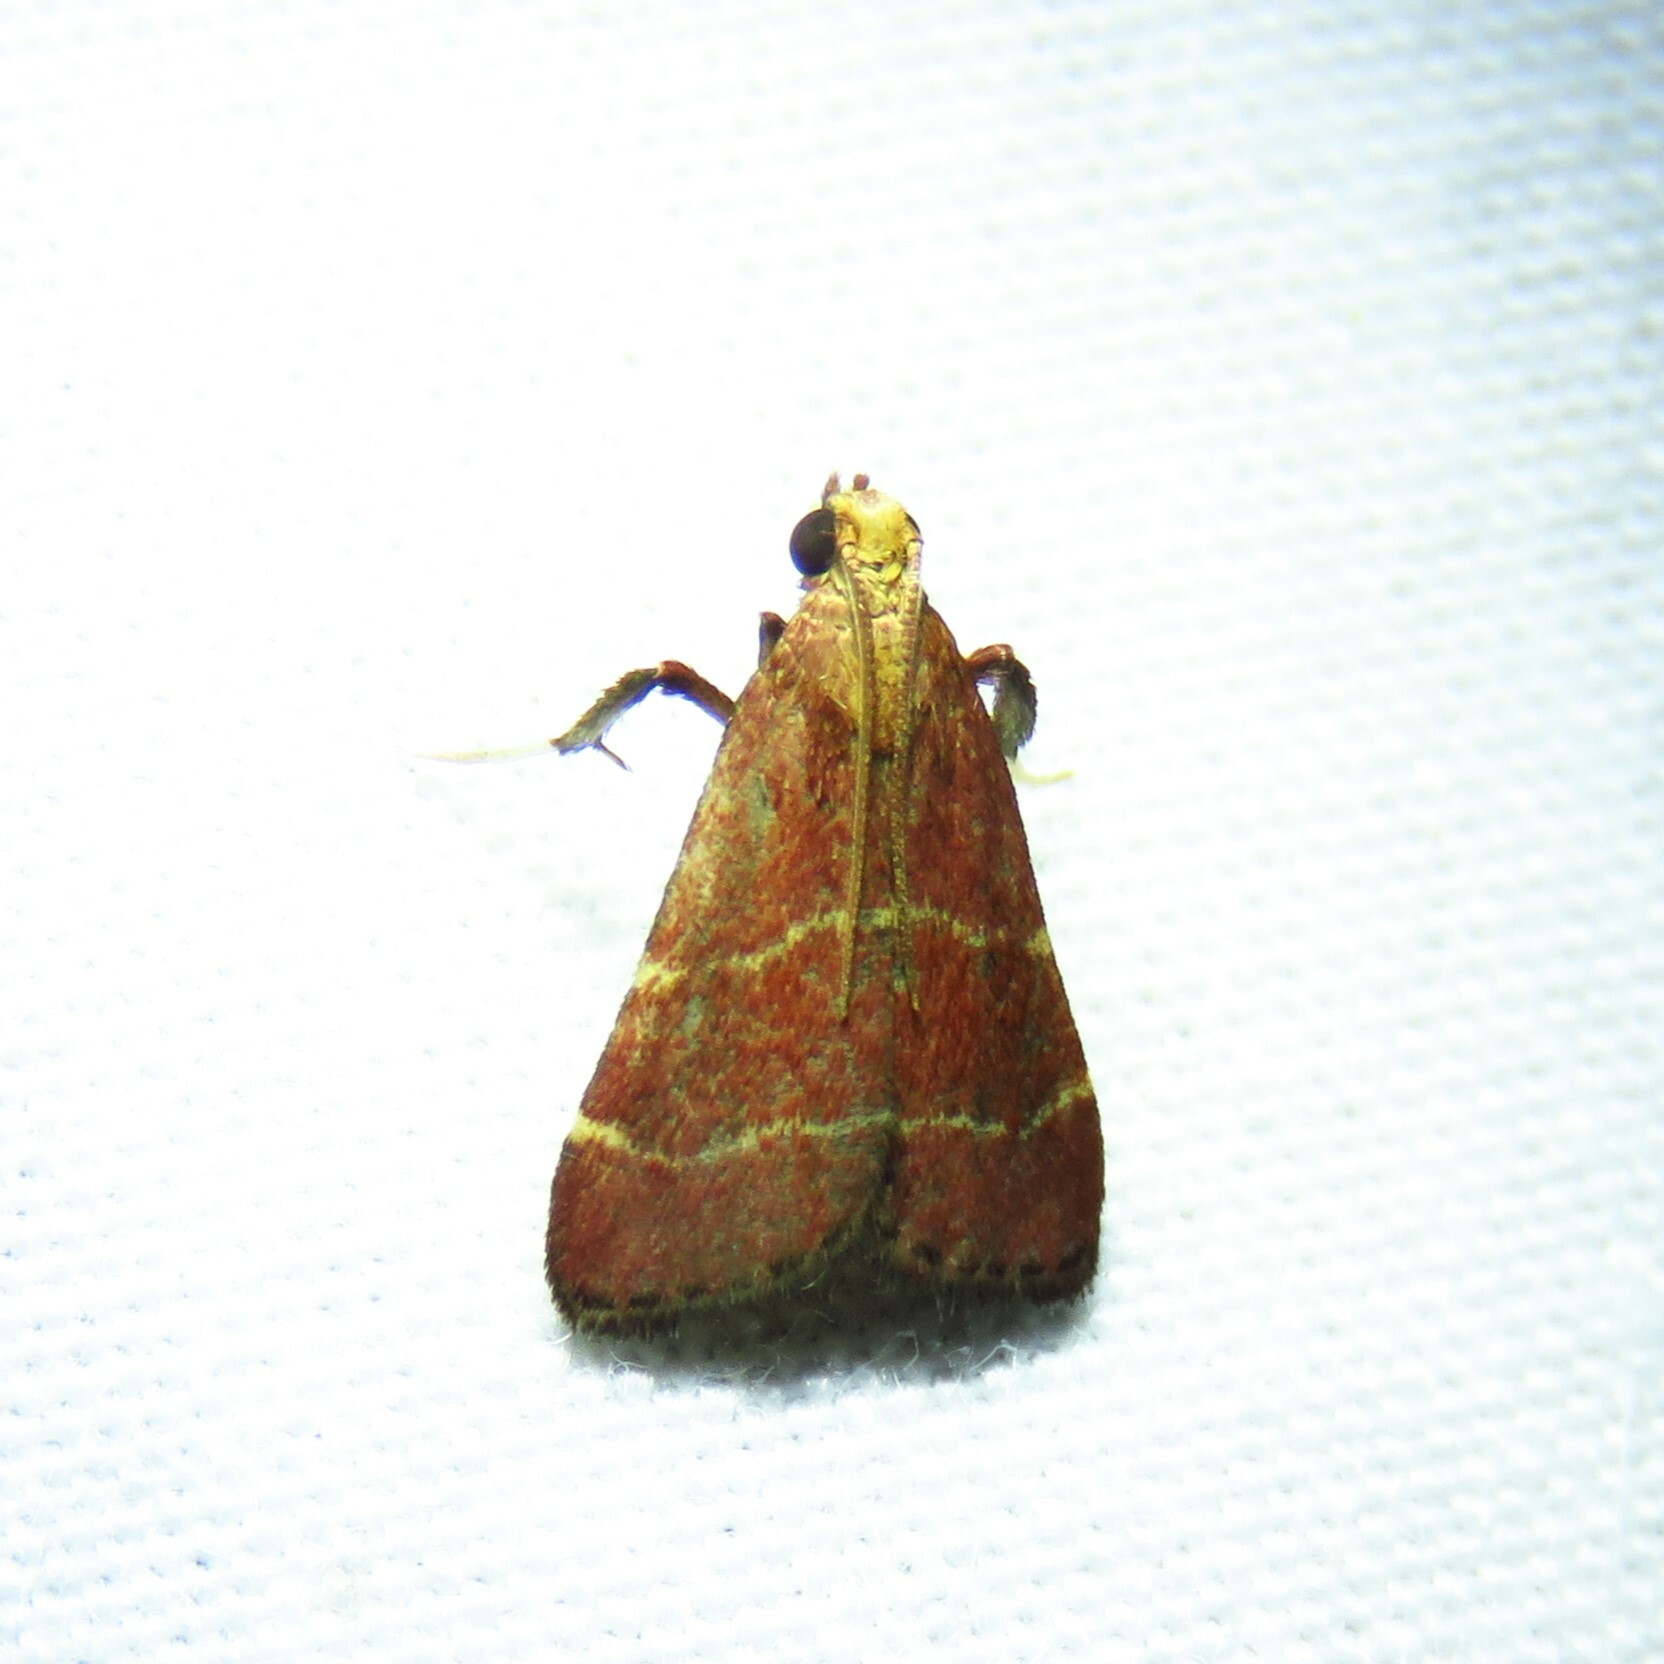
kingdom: Animalia
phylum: Arthropoda
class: Insecta
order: Lepidoptera
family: Pyralidae
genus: Arta
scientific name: Arta statalis
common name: Posturing arta moth
